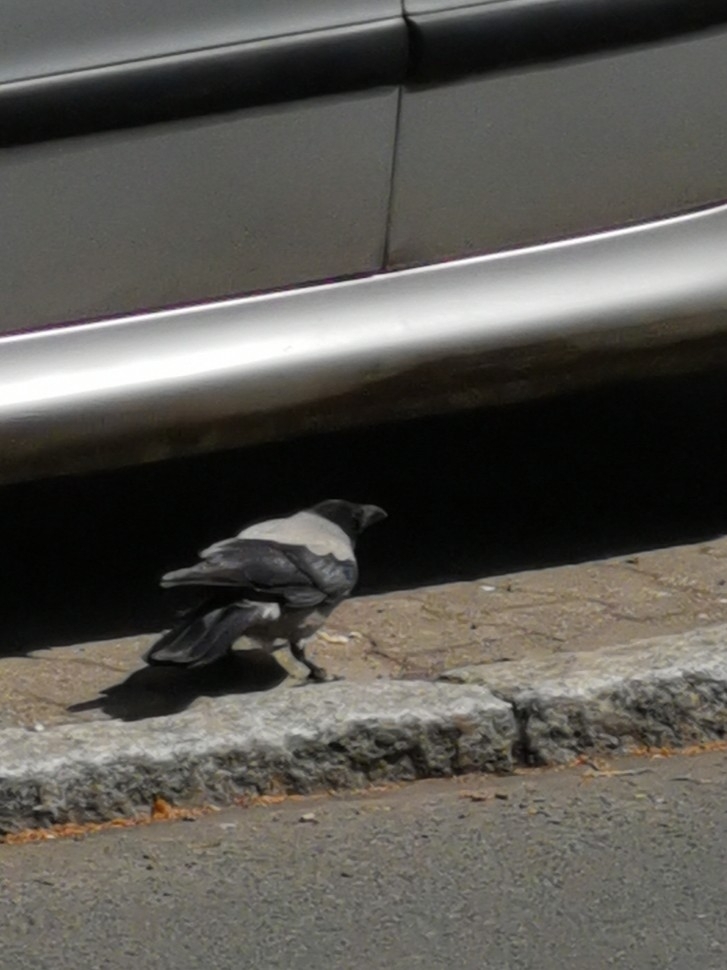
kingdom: Animalia
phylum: Chordata
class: Aves
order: Passeriformes
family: Corvidae
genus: Corvus
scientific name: Corvus cornix
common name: Hooded crow
